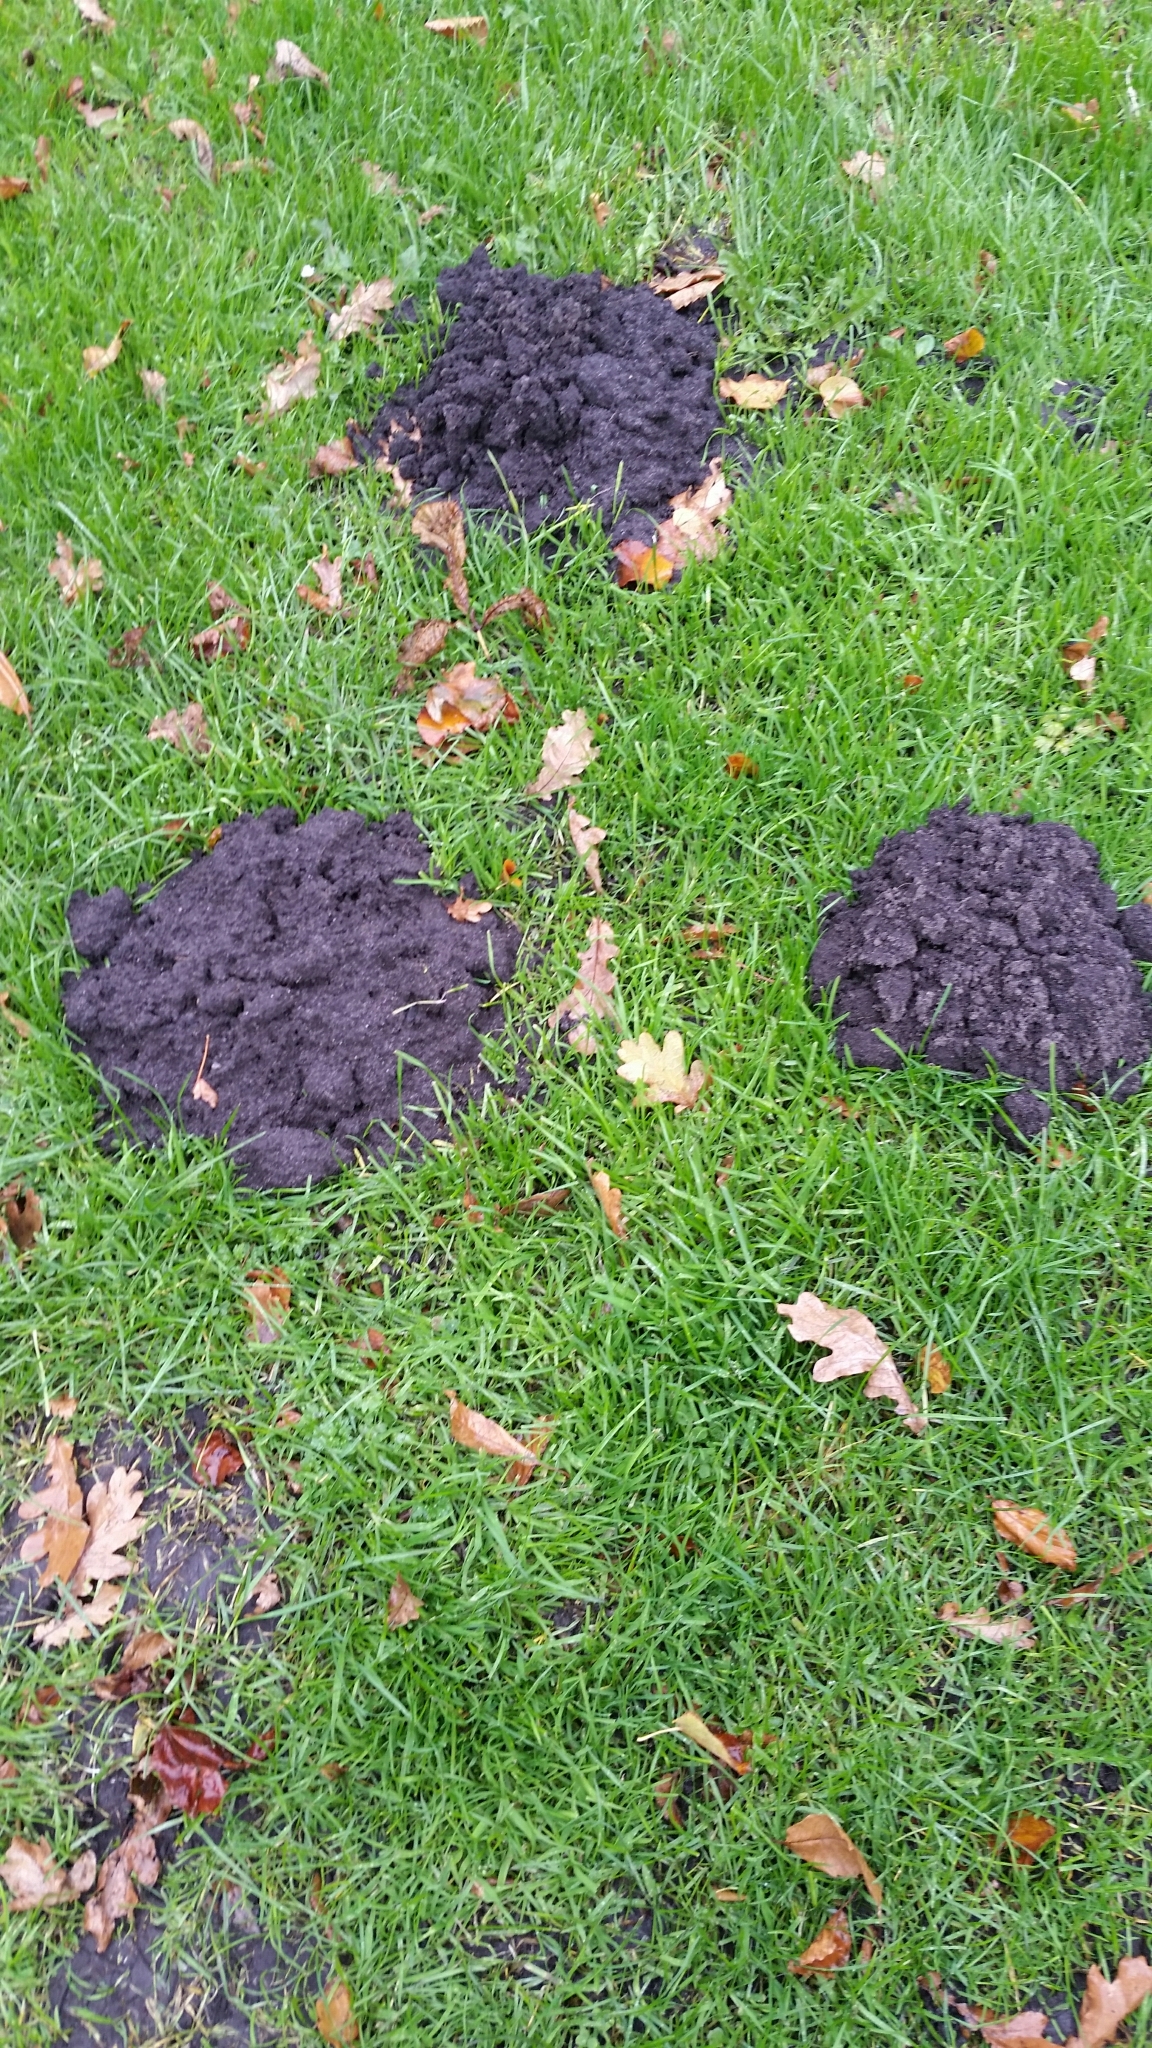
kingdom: Animalia
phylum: Chordata
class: Mammalia
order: Soricomorpha
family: Talpidae
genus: Talpa
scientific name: Talpa europaea
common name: European mole
